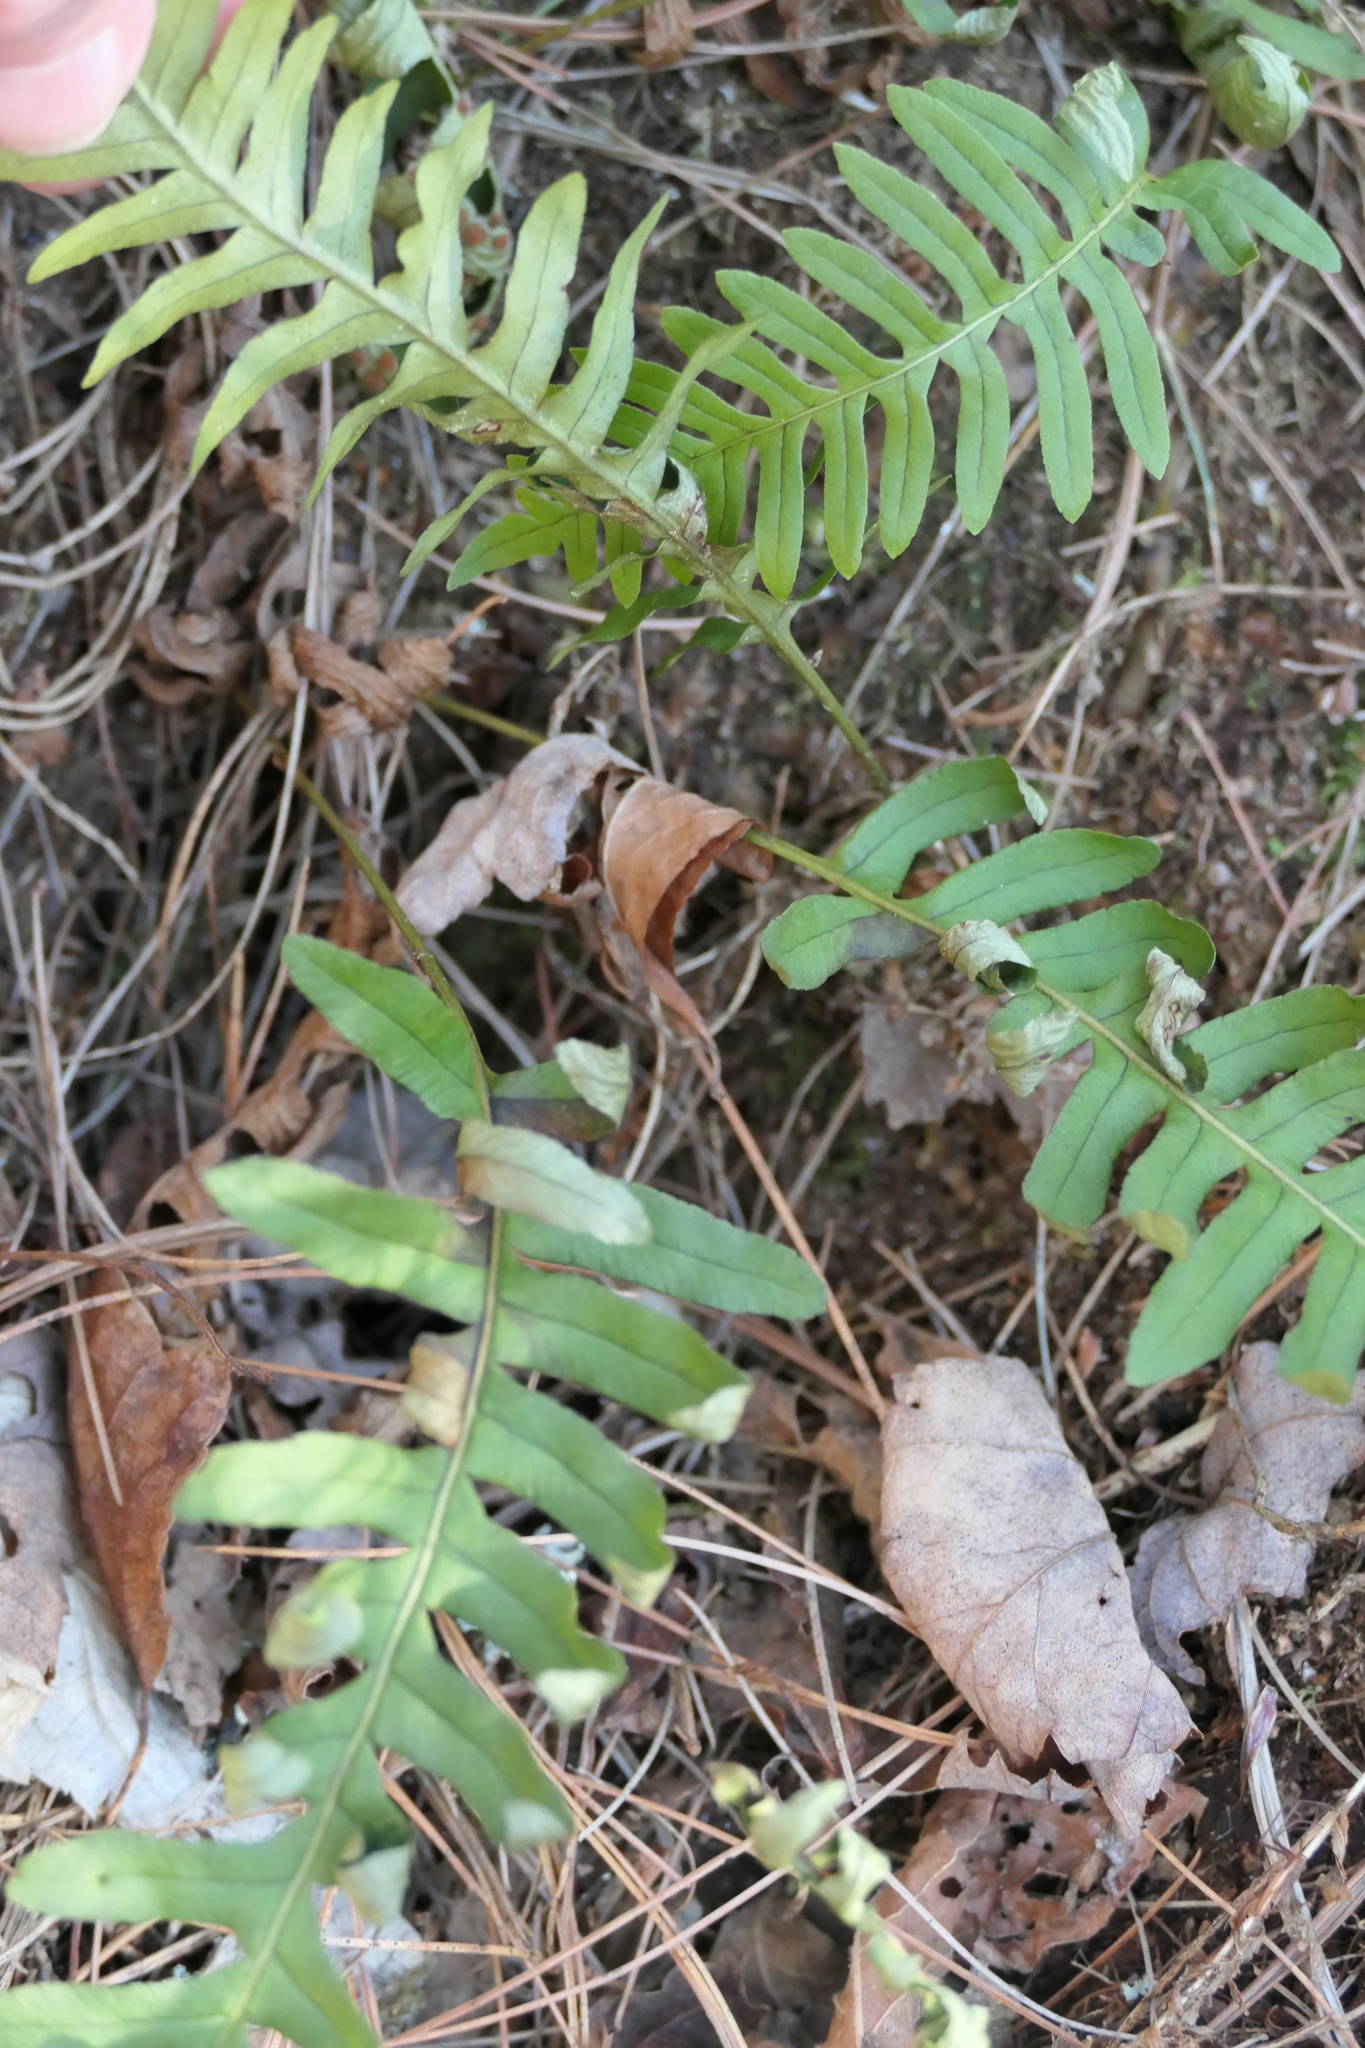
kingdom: Plantae
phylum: Tracheophyta
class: Polypodiopsida
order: Polypodiales
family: Polypodiaceae
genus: Polypodium
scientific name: Polypodium virginianum
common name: American wall fern
